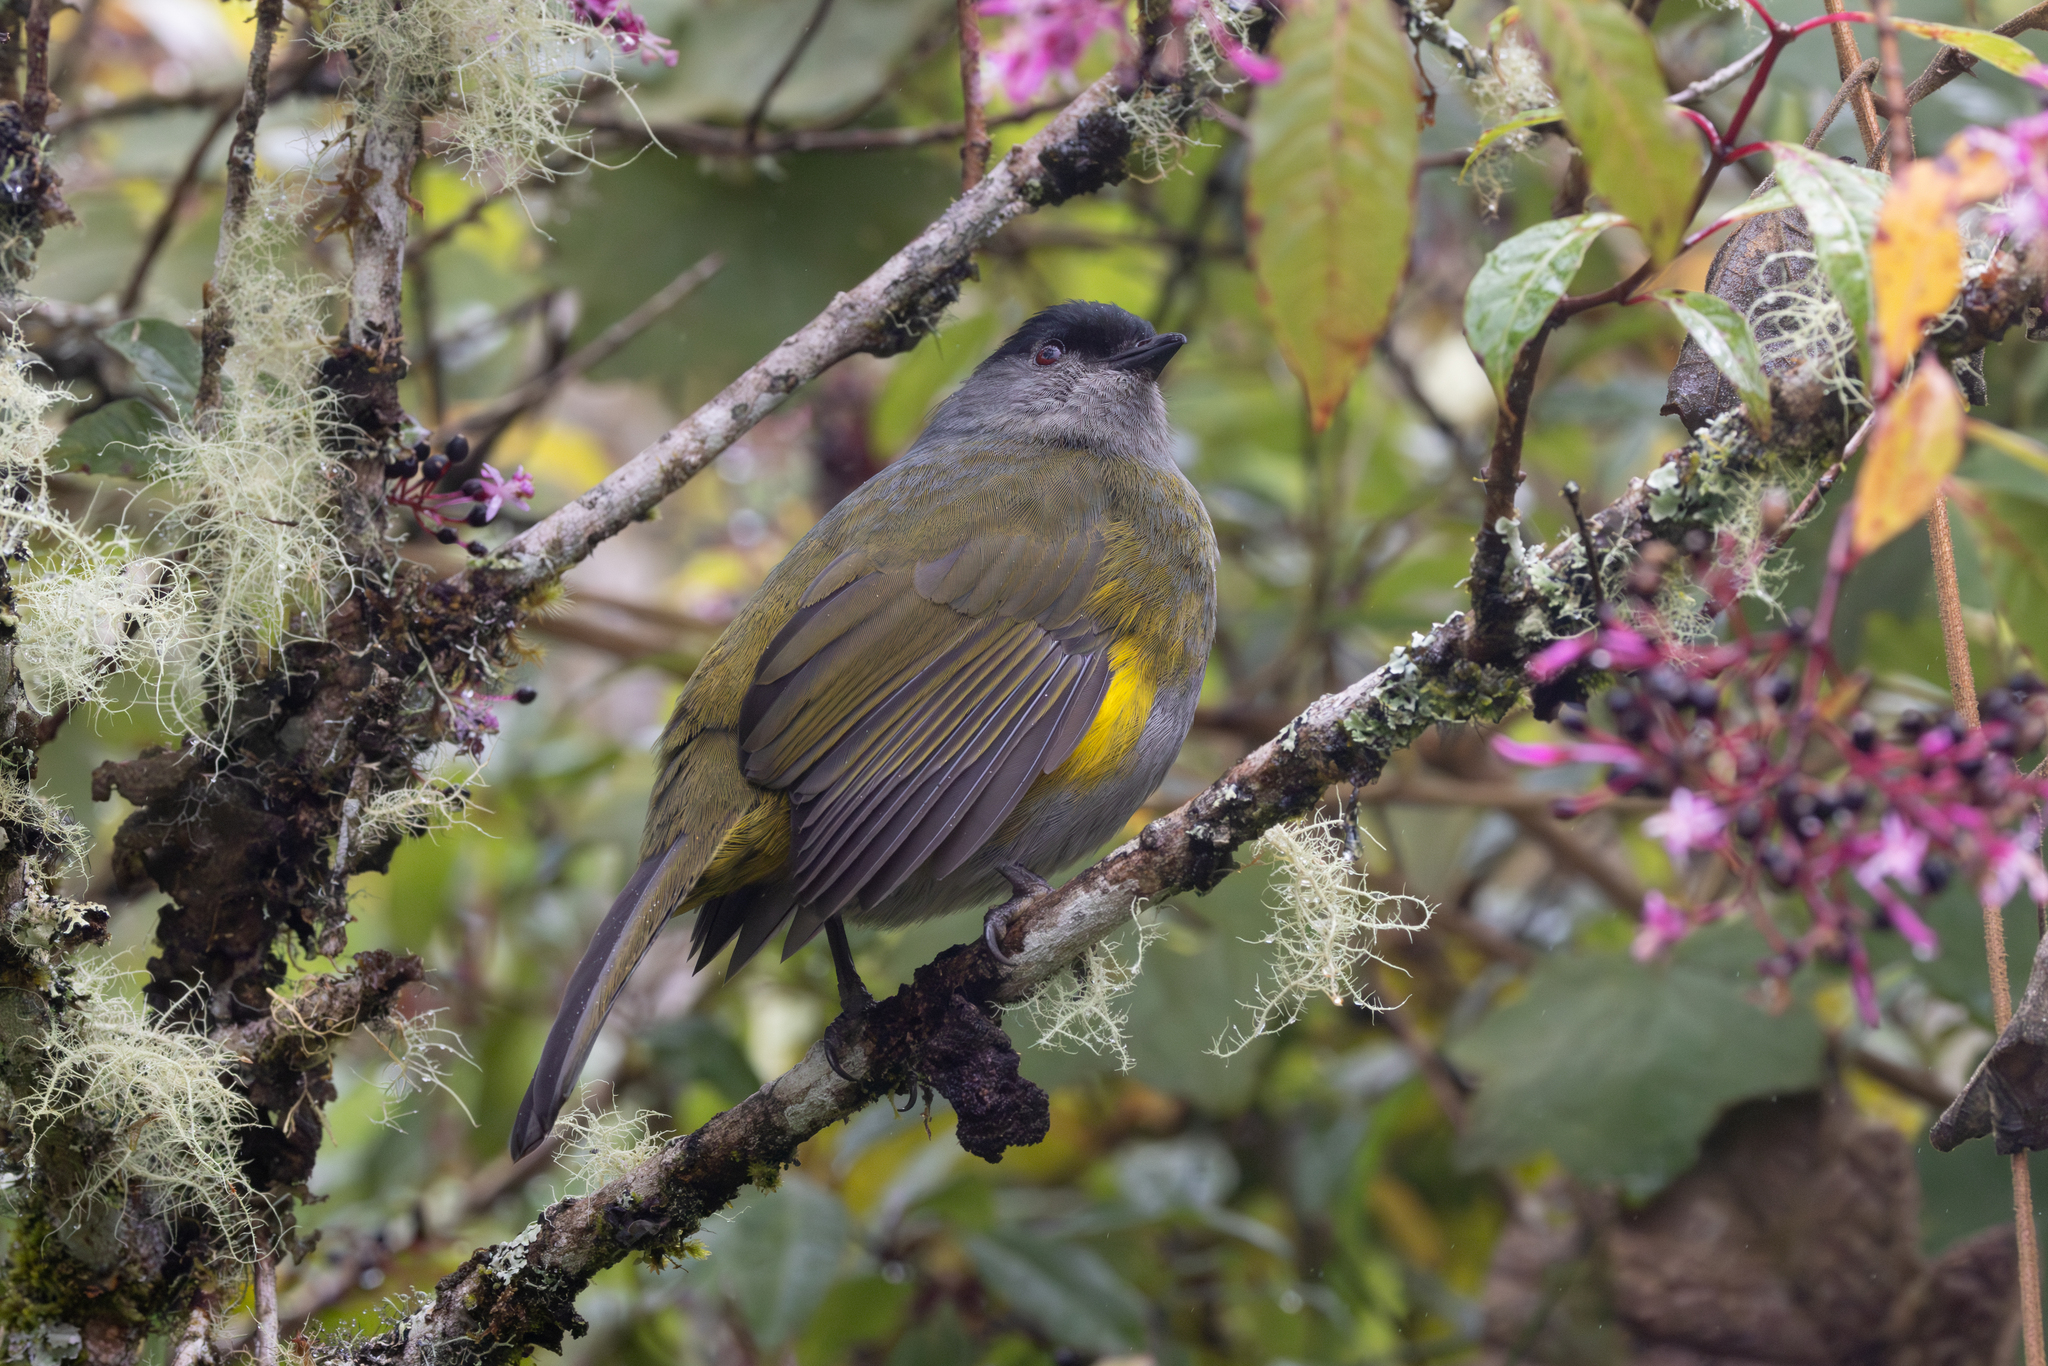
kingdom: Animalia
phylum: Chordata
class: Aves
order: Passeriformes
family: Ptilogonatidae
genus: Phainoptila
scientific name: Phainoptila melanoxantha
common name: Black-and-yellow phainoptila
